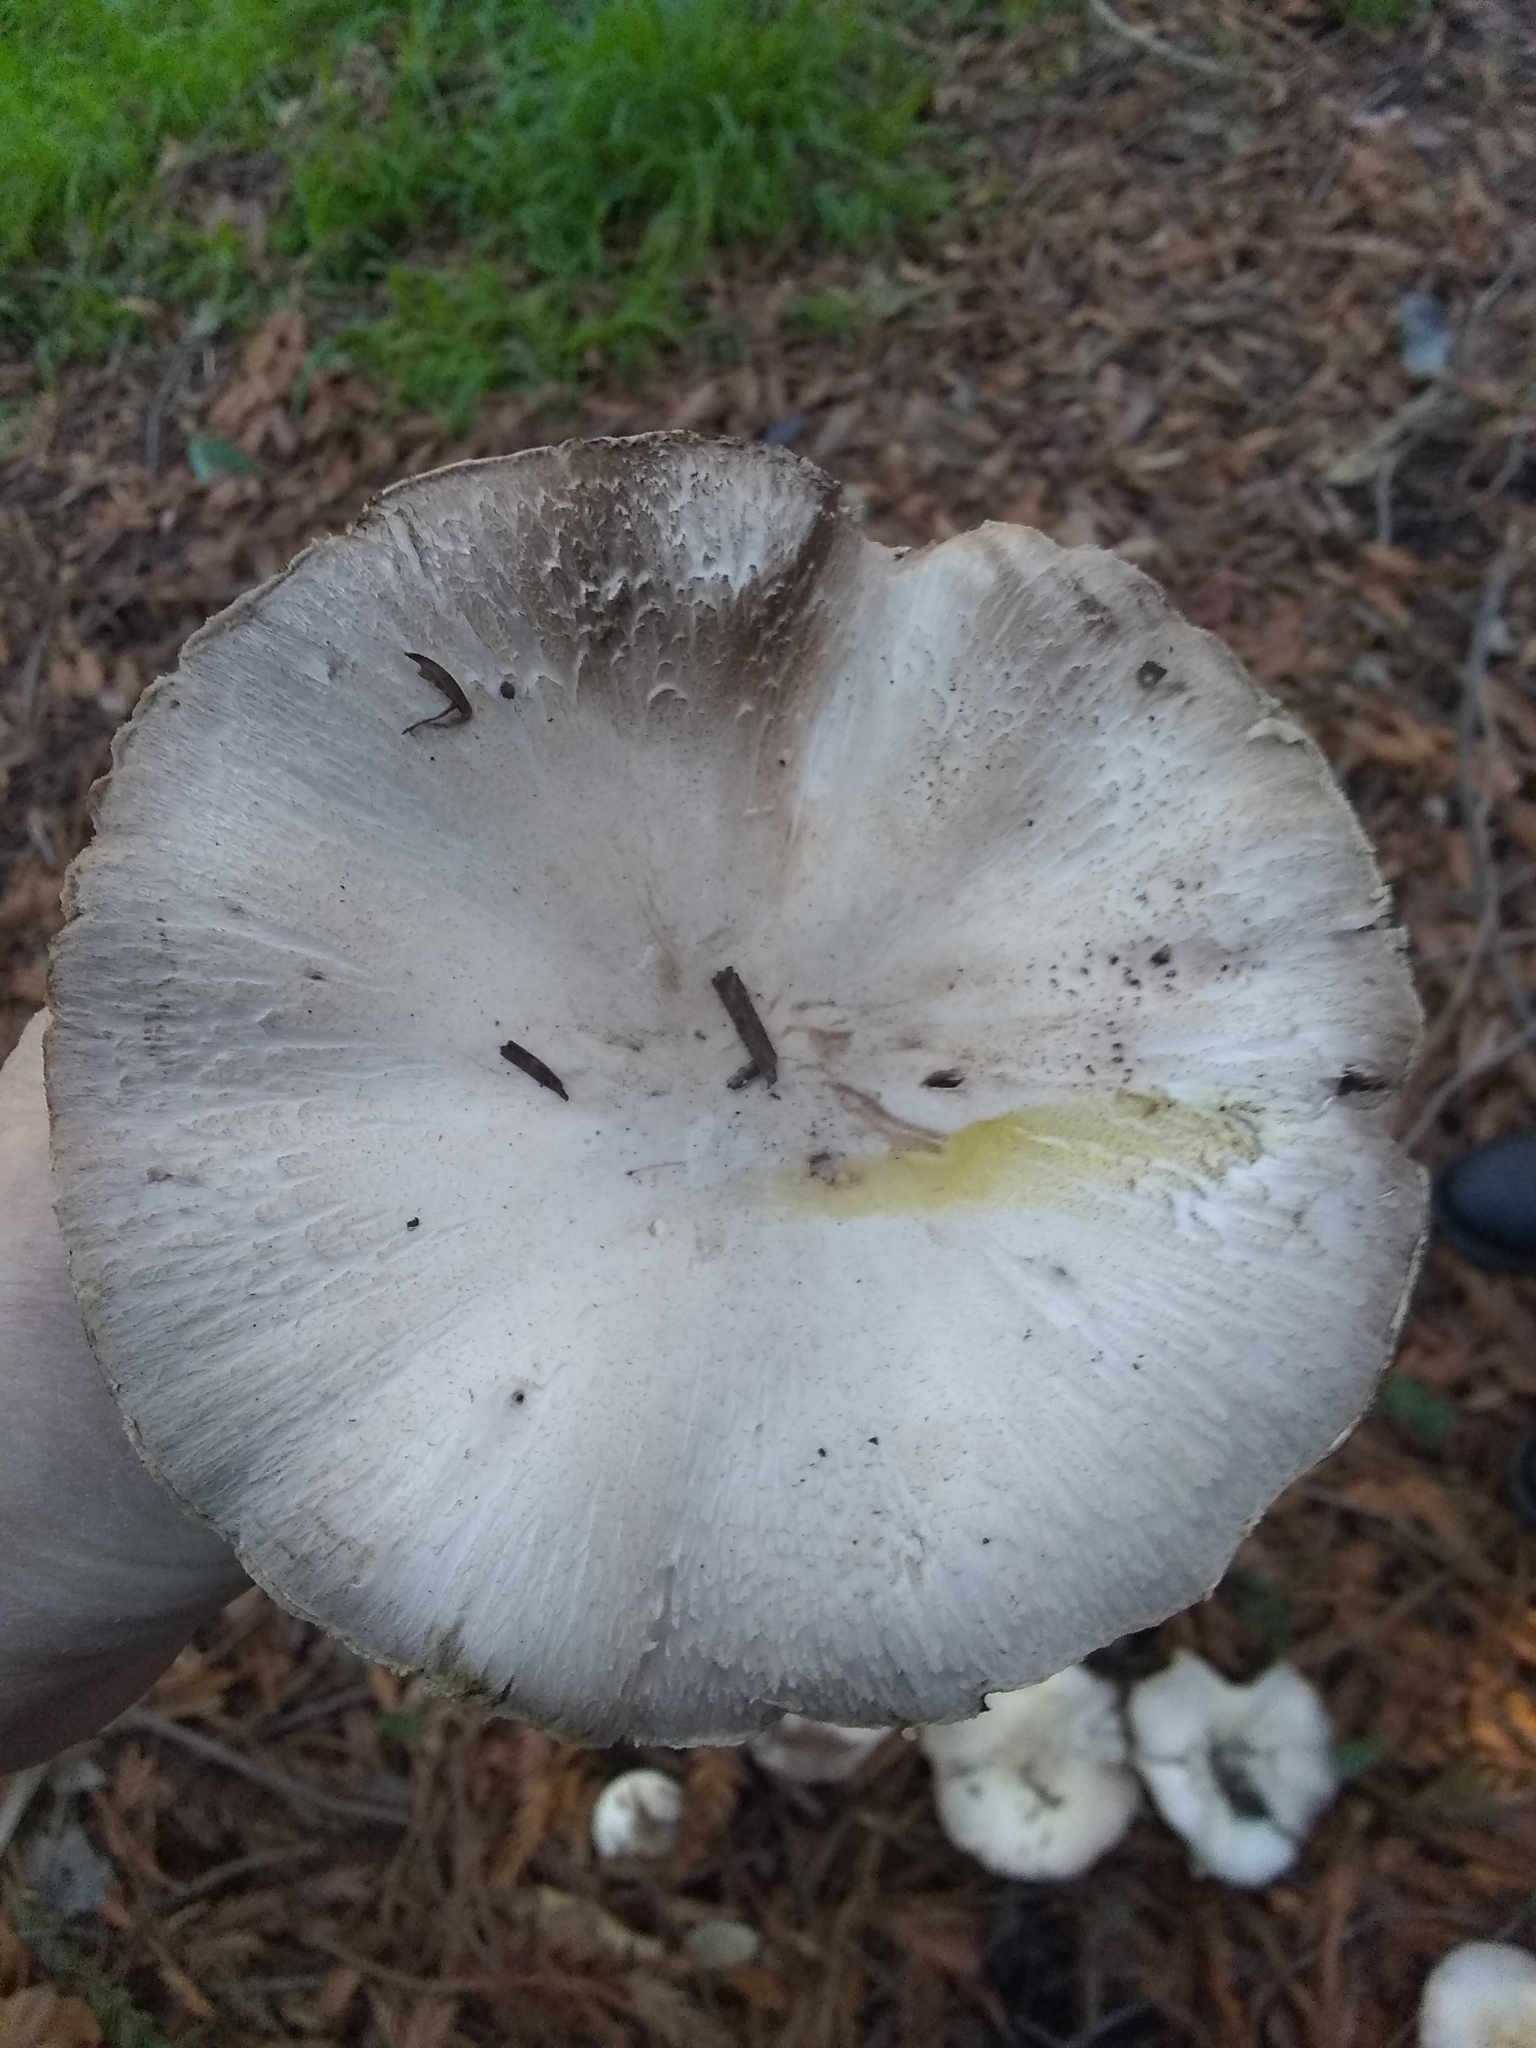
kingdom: Fungi
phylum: Basidiomycota
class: Agaricomycetes
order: Agaricales
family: Agaricaceae
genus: Agaricus
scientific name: Agaricus xanthodermus
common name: Yellow stainer
